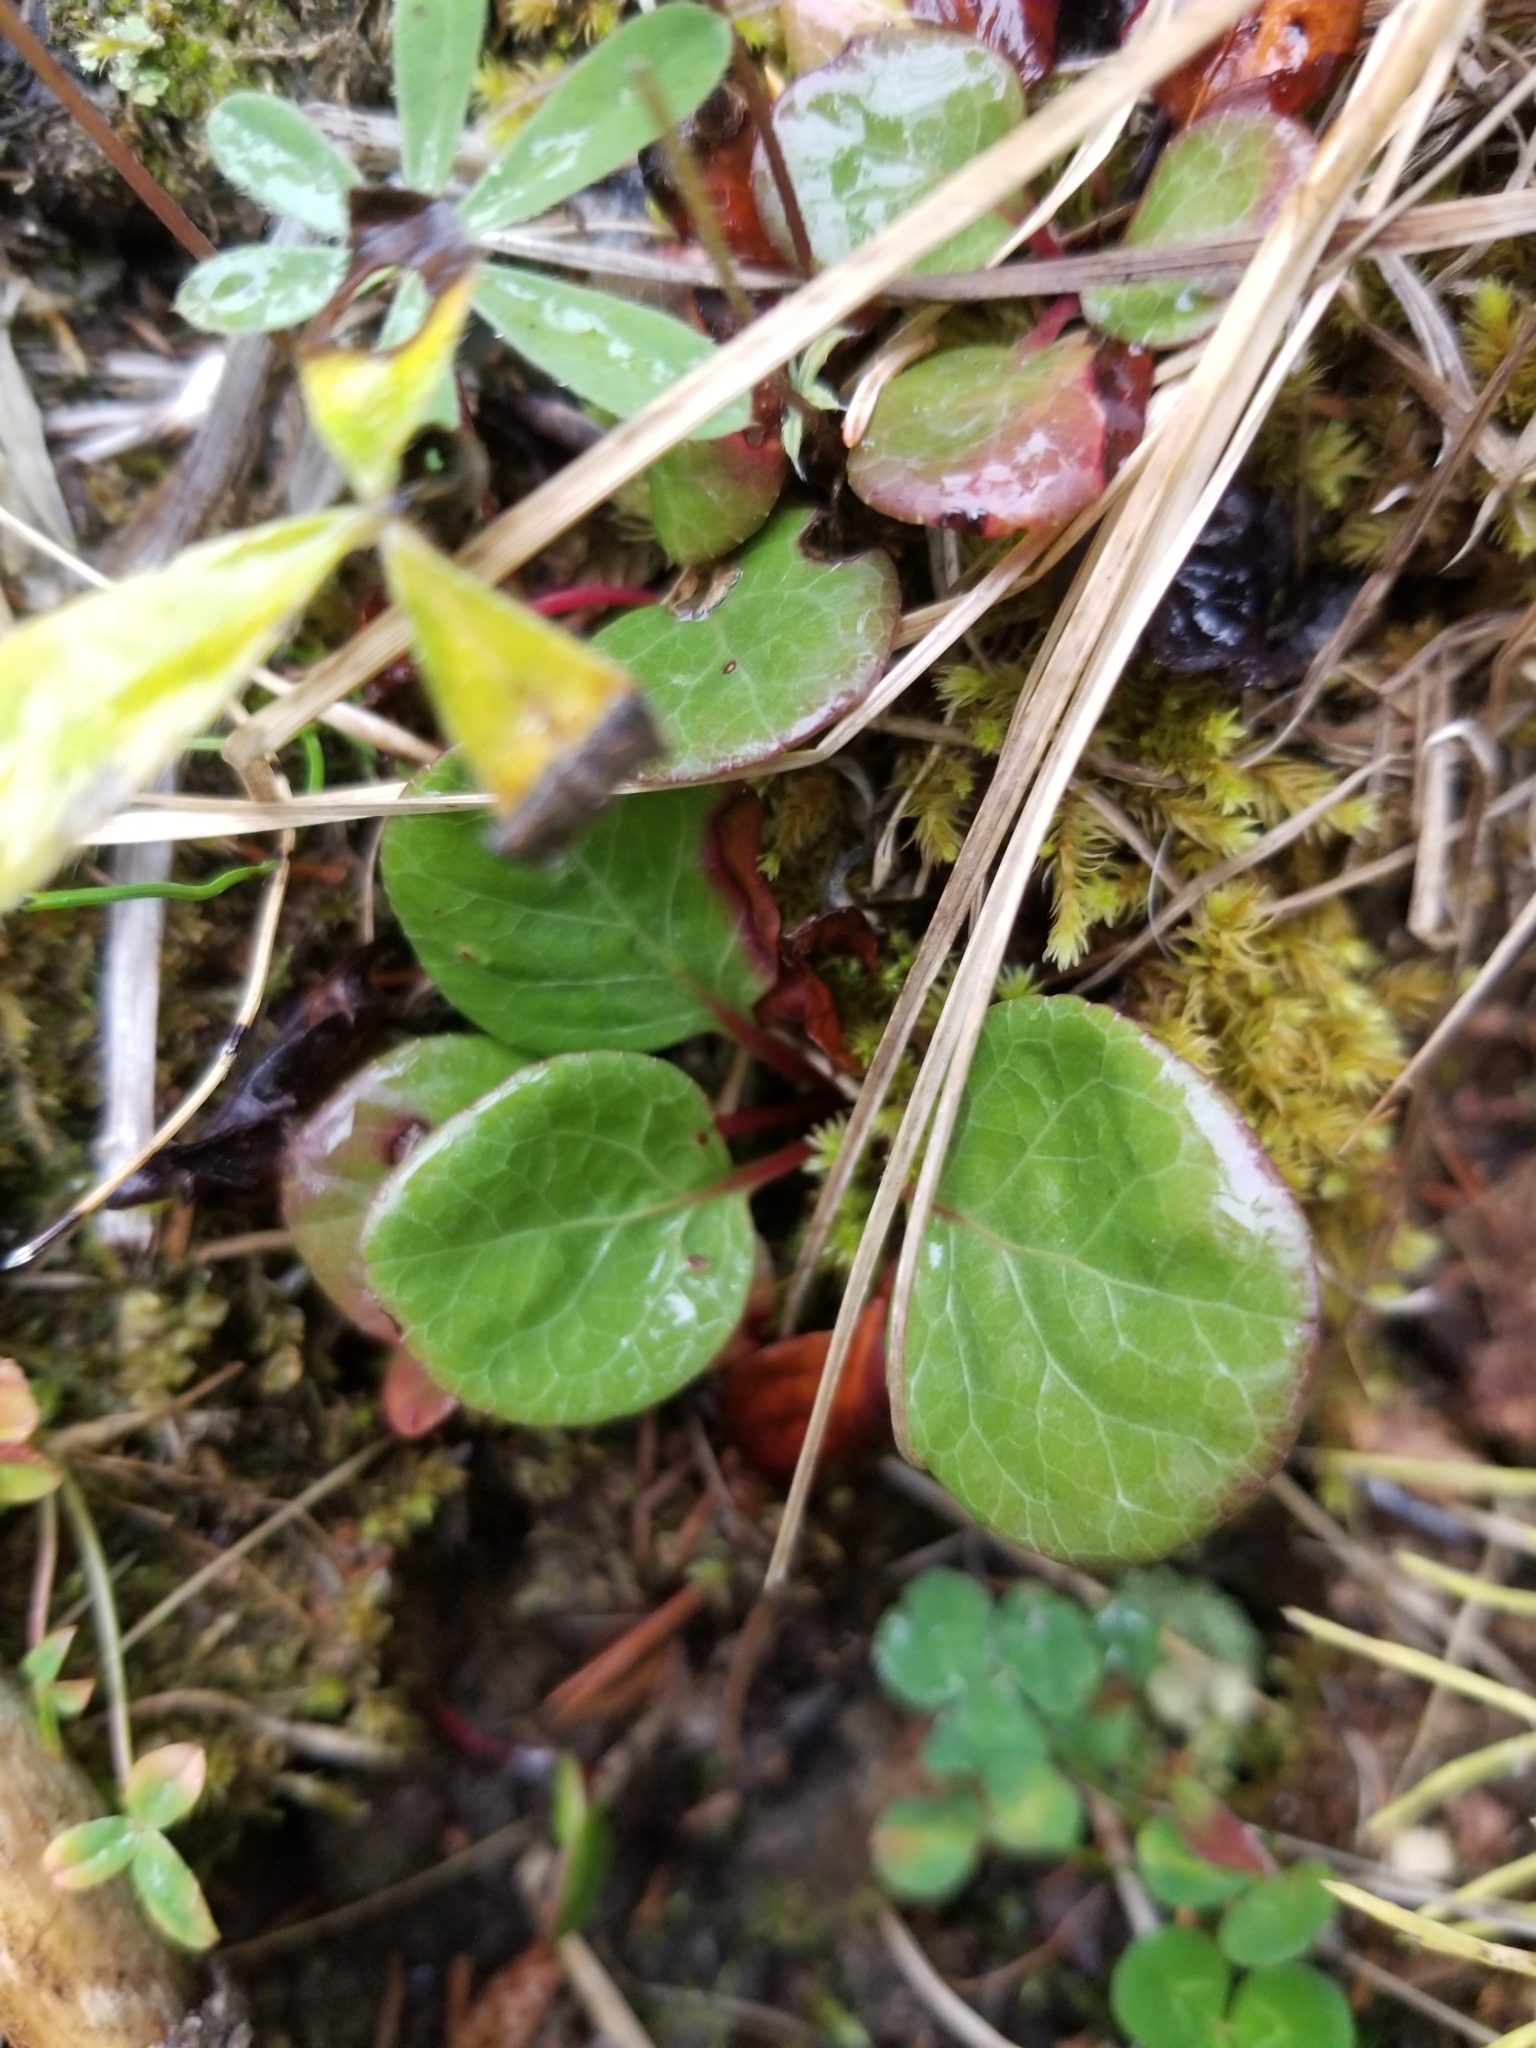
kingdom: Plantae
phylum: Tracheophyta
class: Magnoliopsida
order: Ericales
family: Ericaceae
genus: Pyrola
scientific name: Pyrola asarifolia
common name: Bog wintergreen
